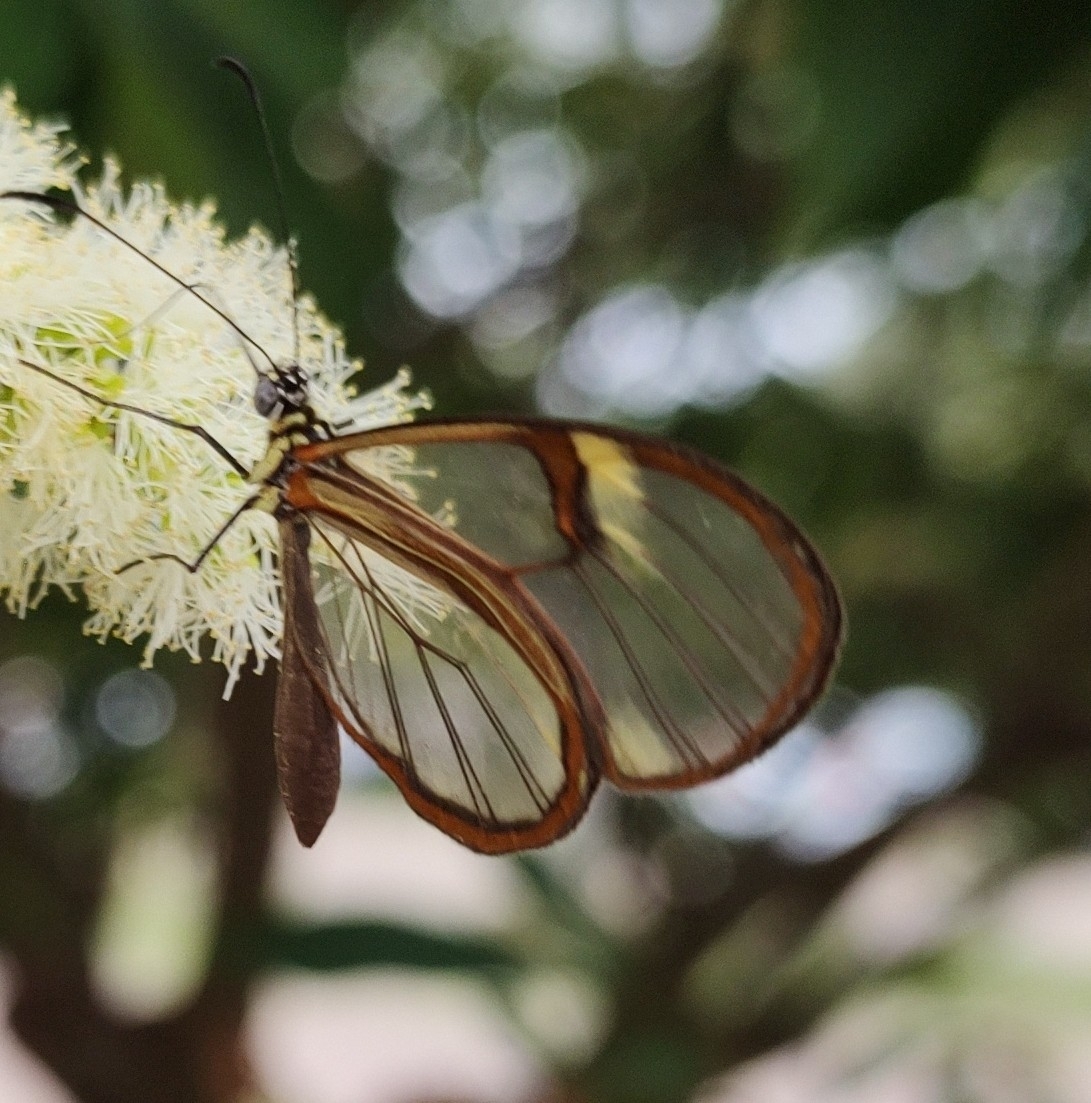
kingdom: Animalia
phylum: Arthropoda
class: Insecta
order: Lepidoptera
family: Nymphalidae
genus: Episcada
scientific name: Episcada hymenaea
